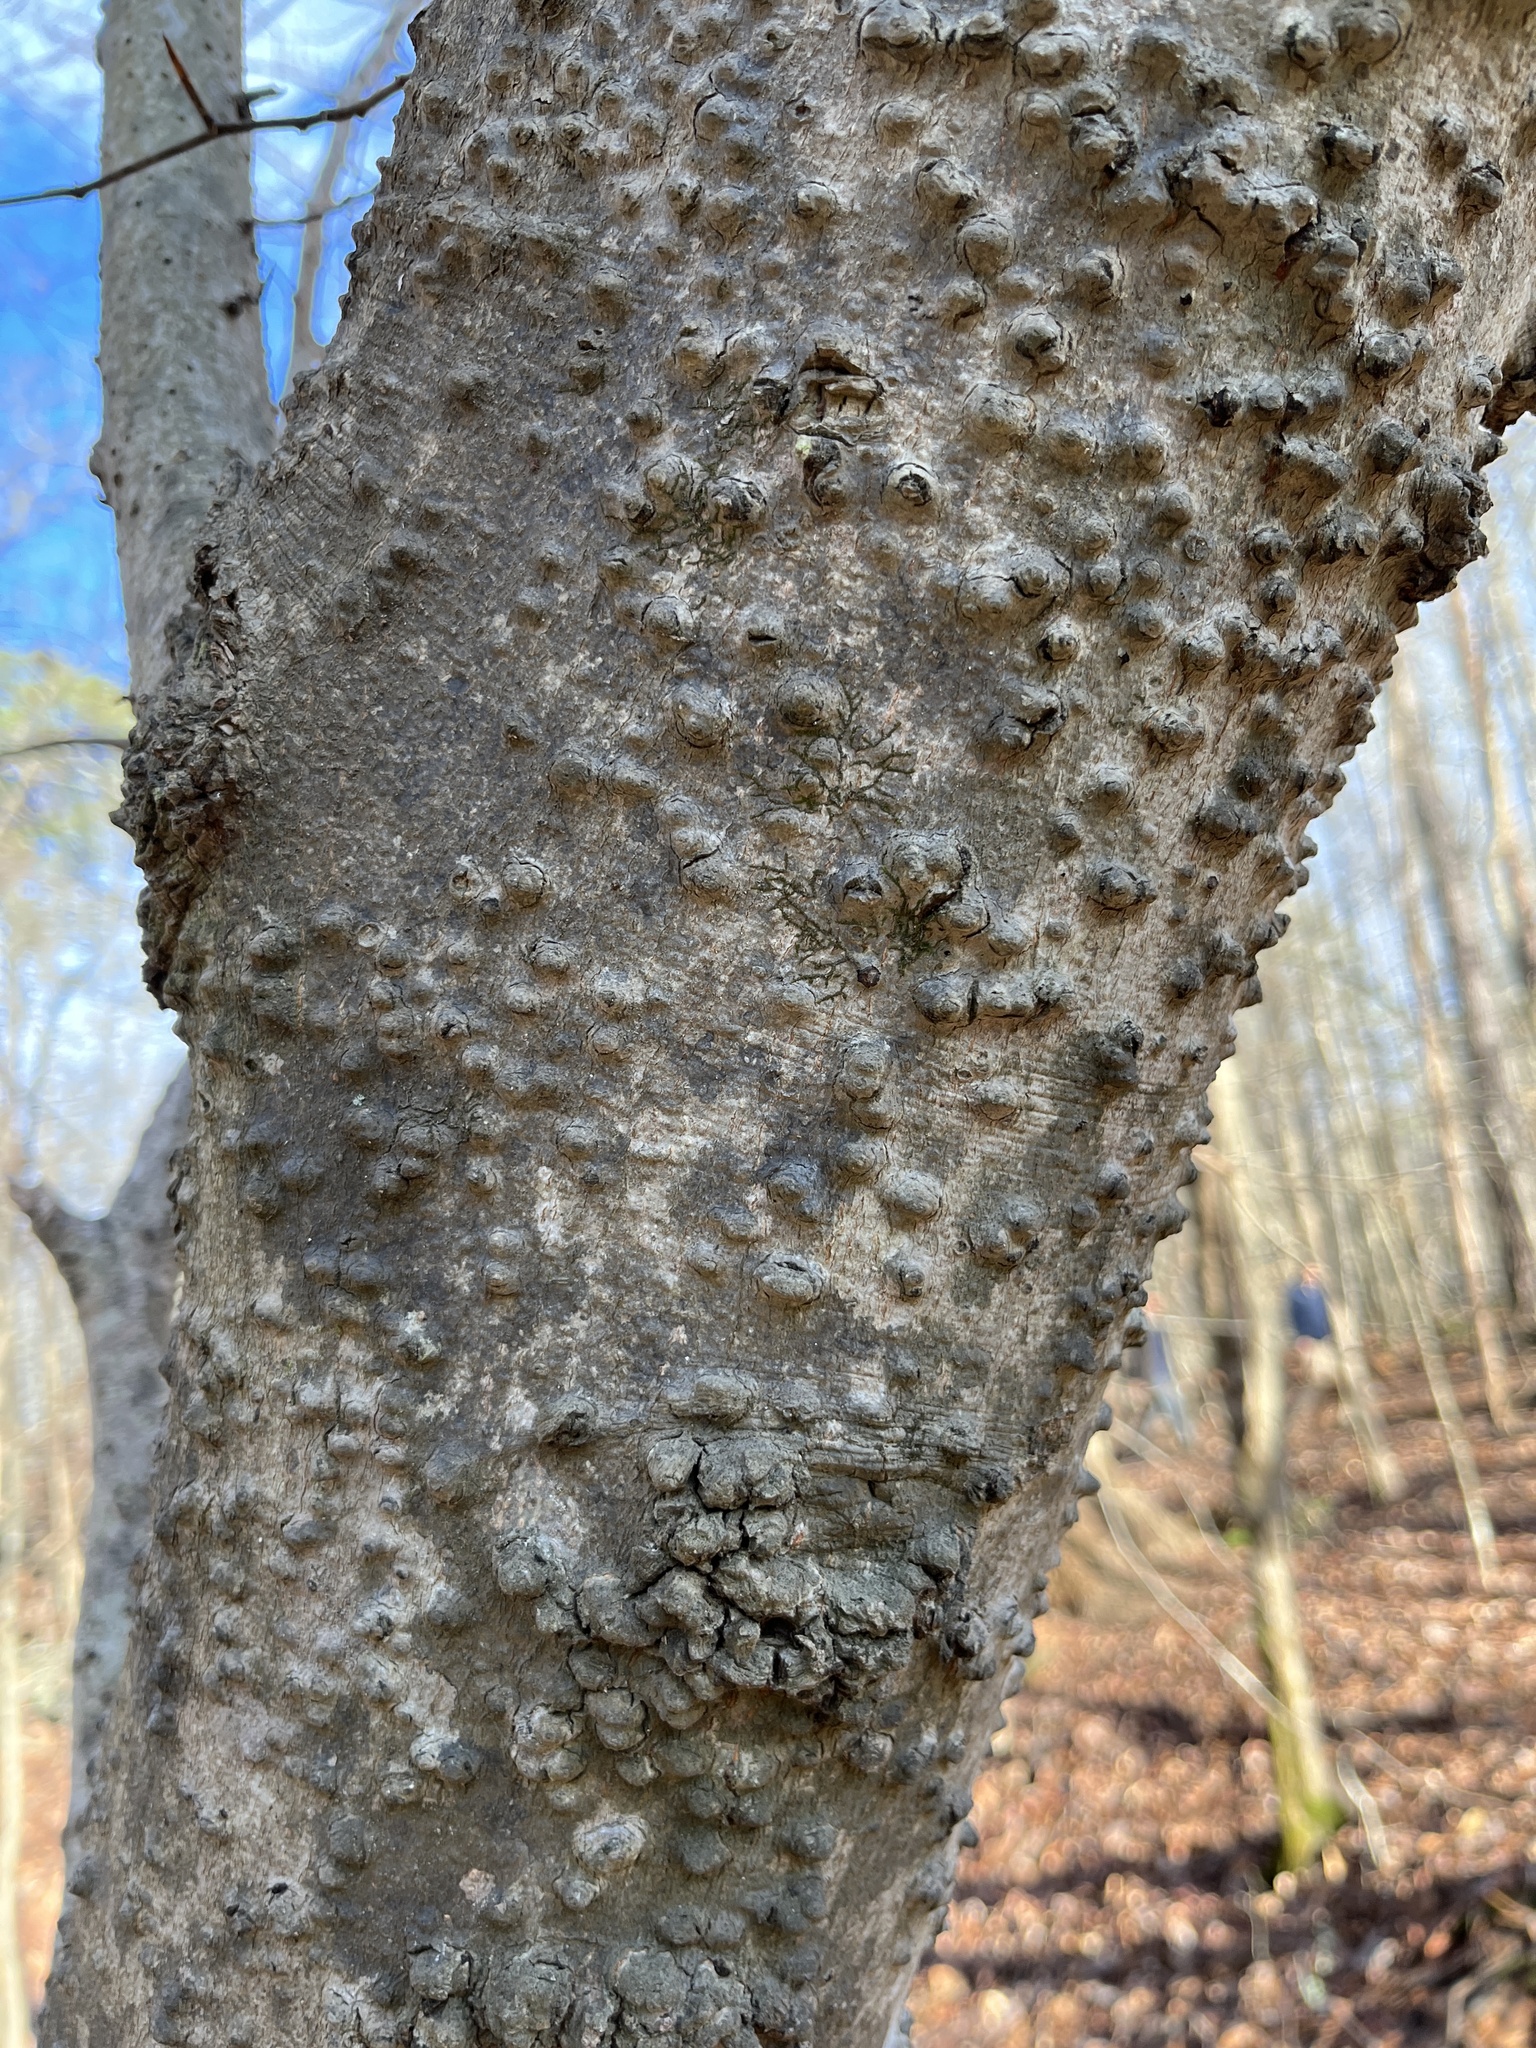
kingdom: Fungi
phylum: Ascomycota
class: Sordariomycetes
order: Hypocreales
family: Nectriaceae
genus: Neonectria
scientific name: Neonectria faginata
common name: Beech bark canker
